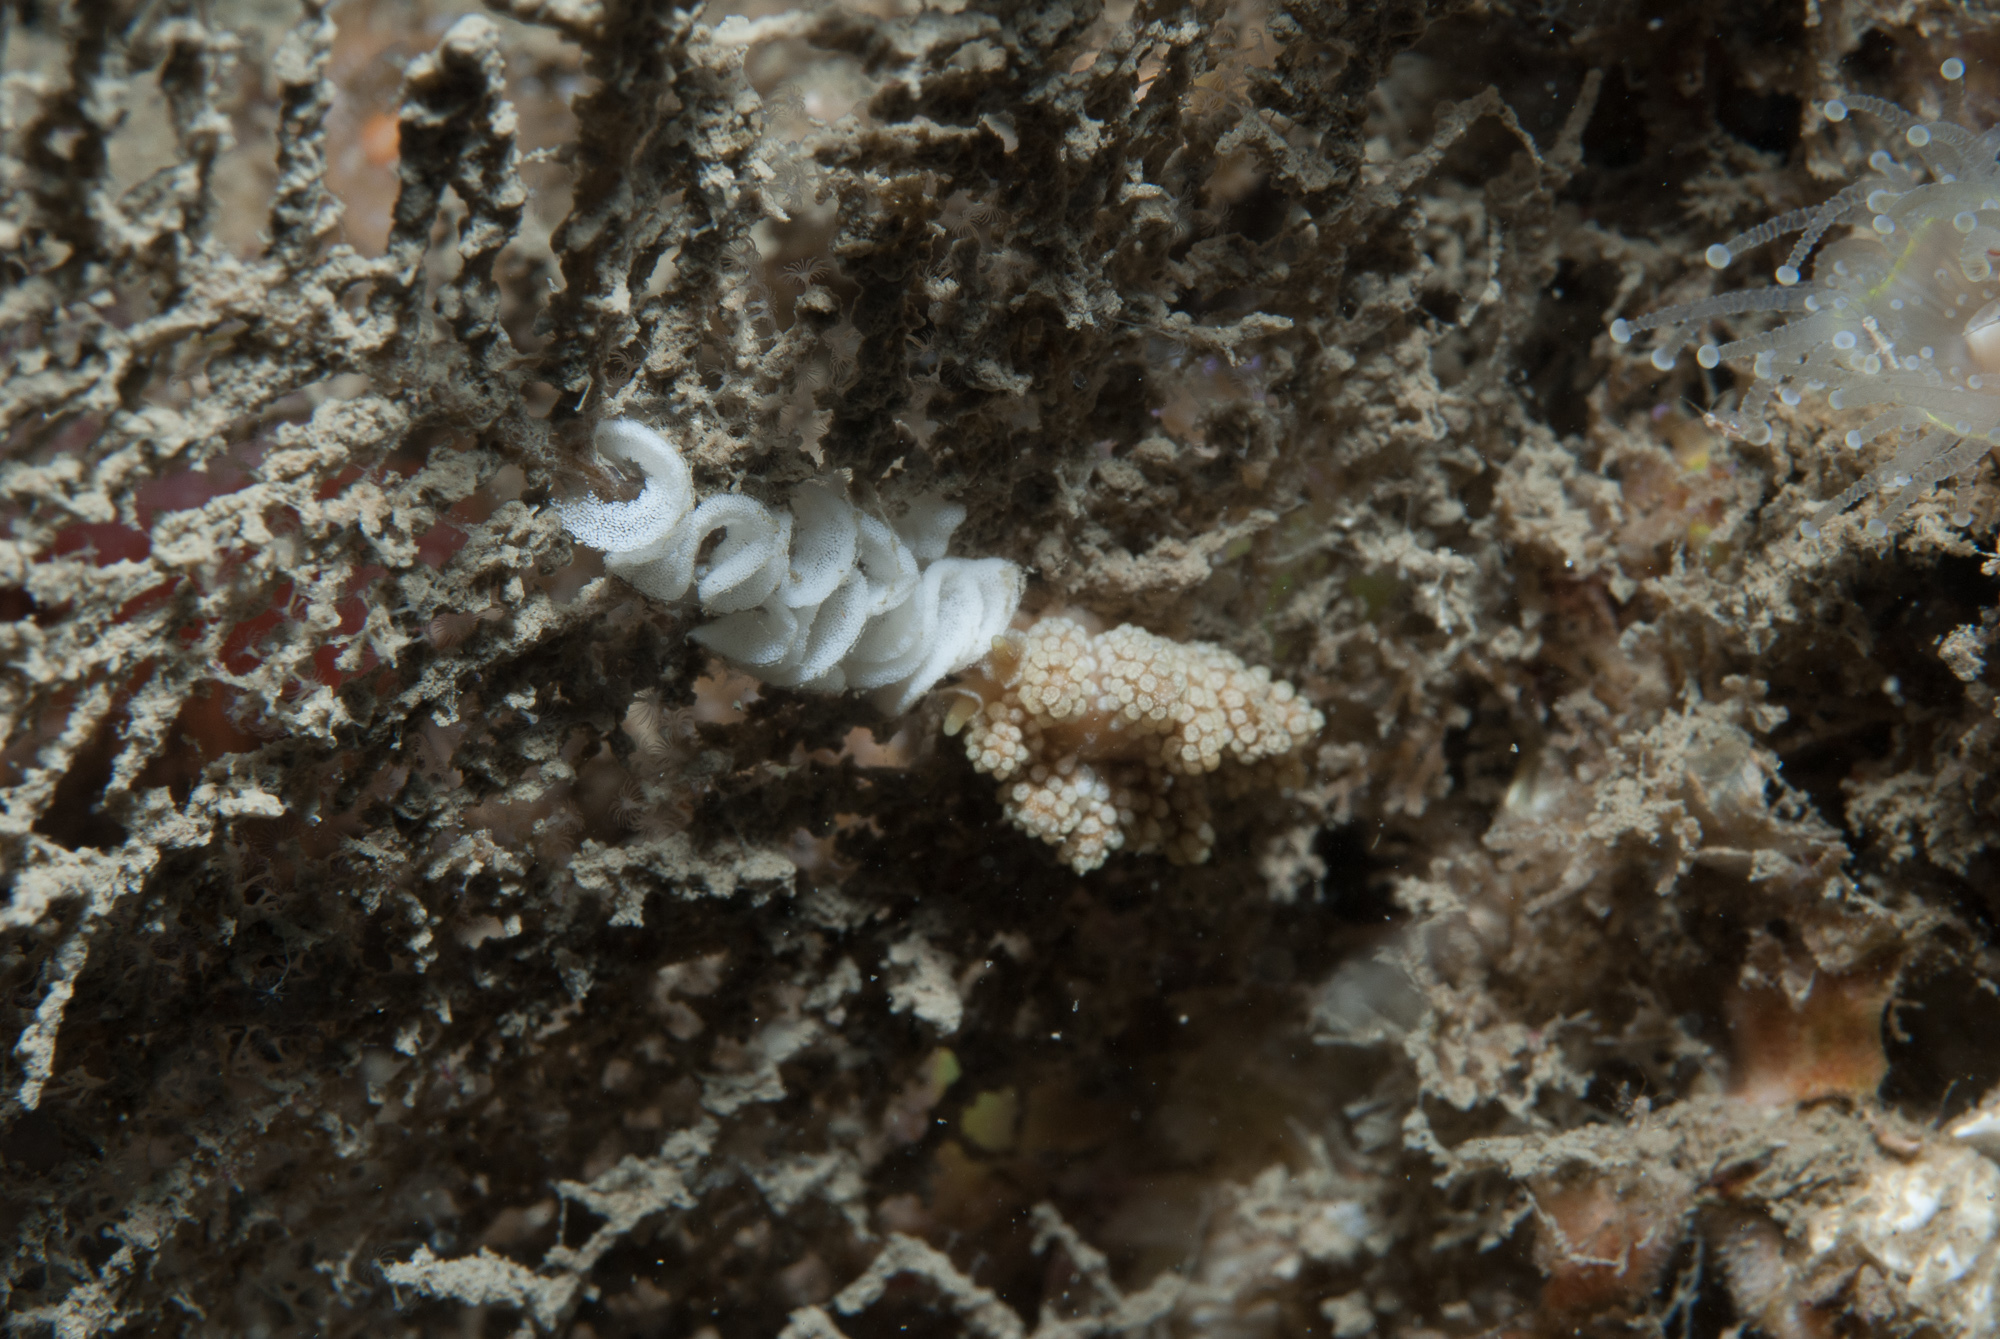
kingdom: Animalia
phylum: Mollusca
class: Gastropoda
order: Nudibranchia
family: Dotidae
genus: Doto
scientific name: Doto fragilis
